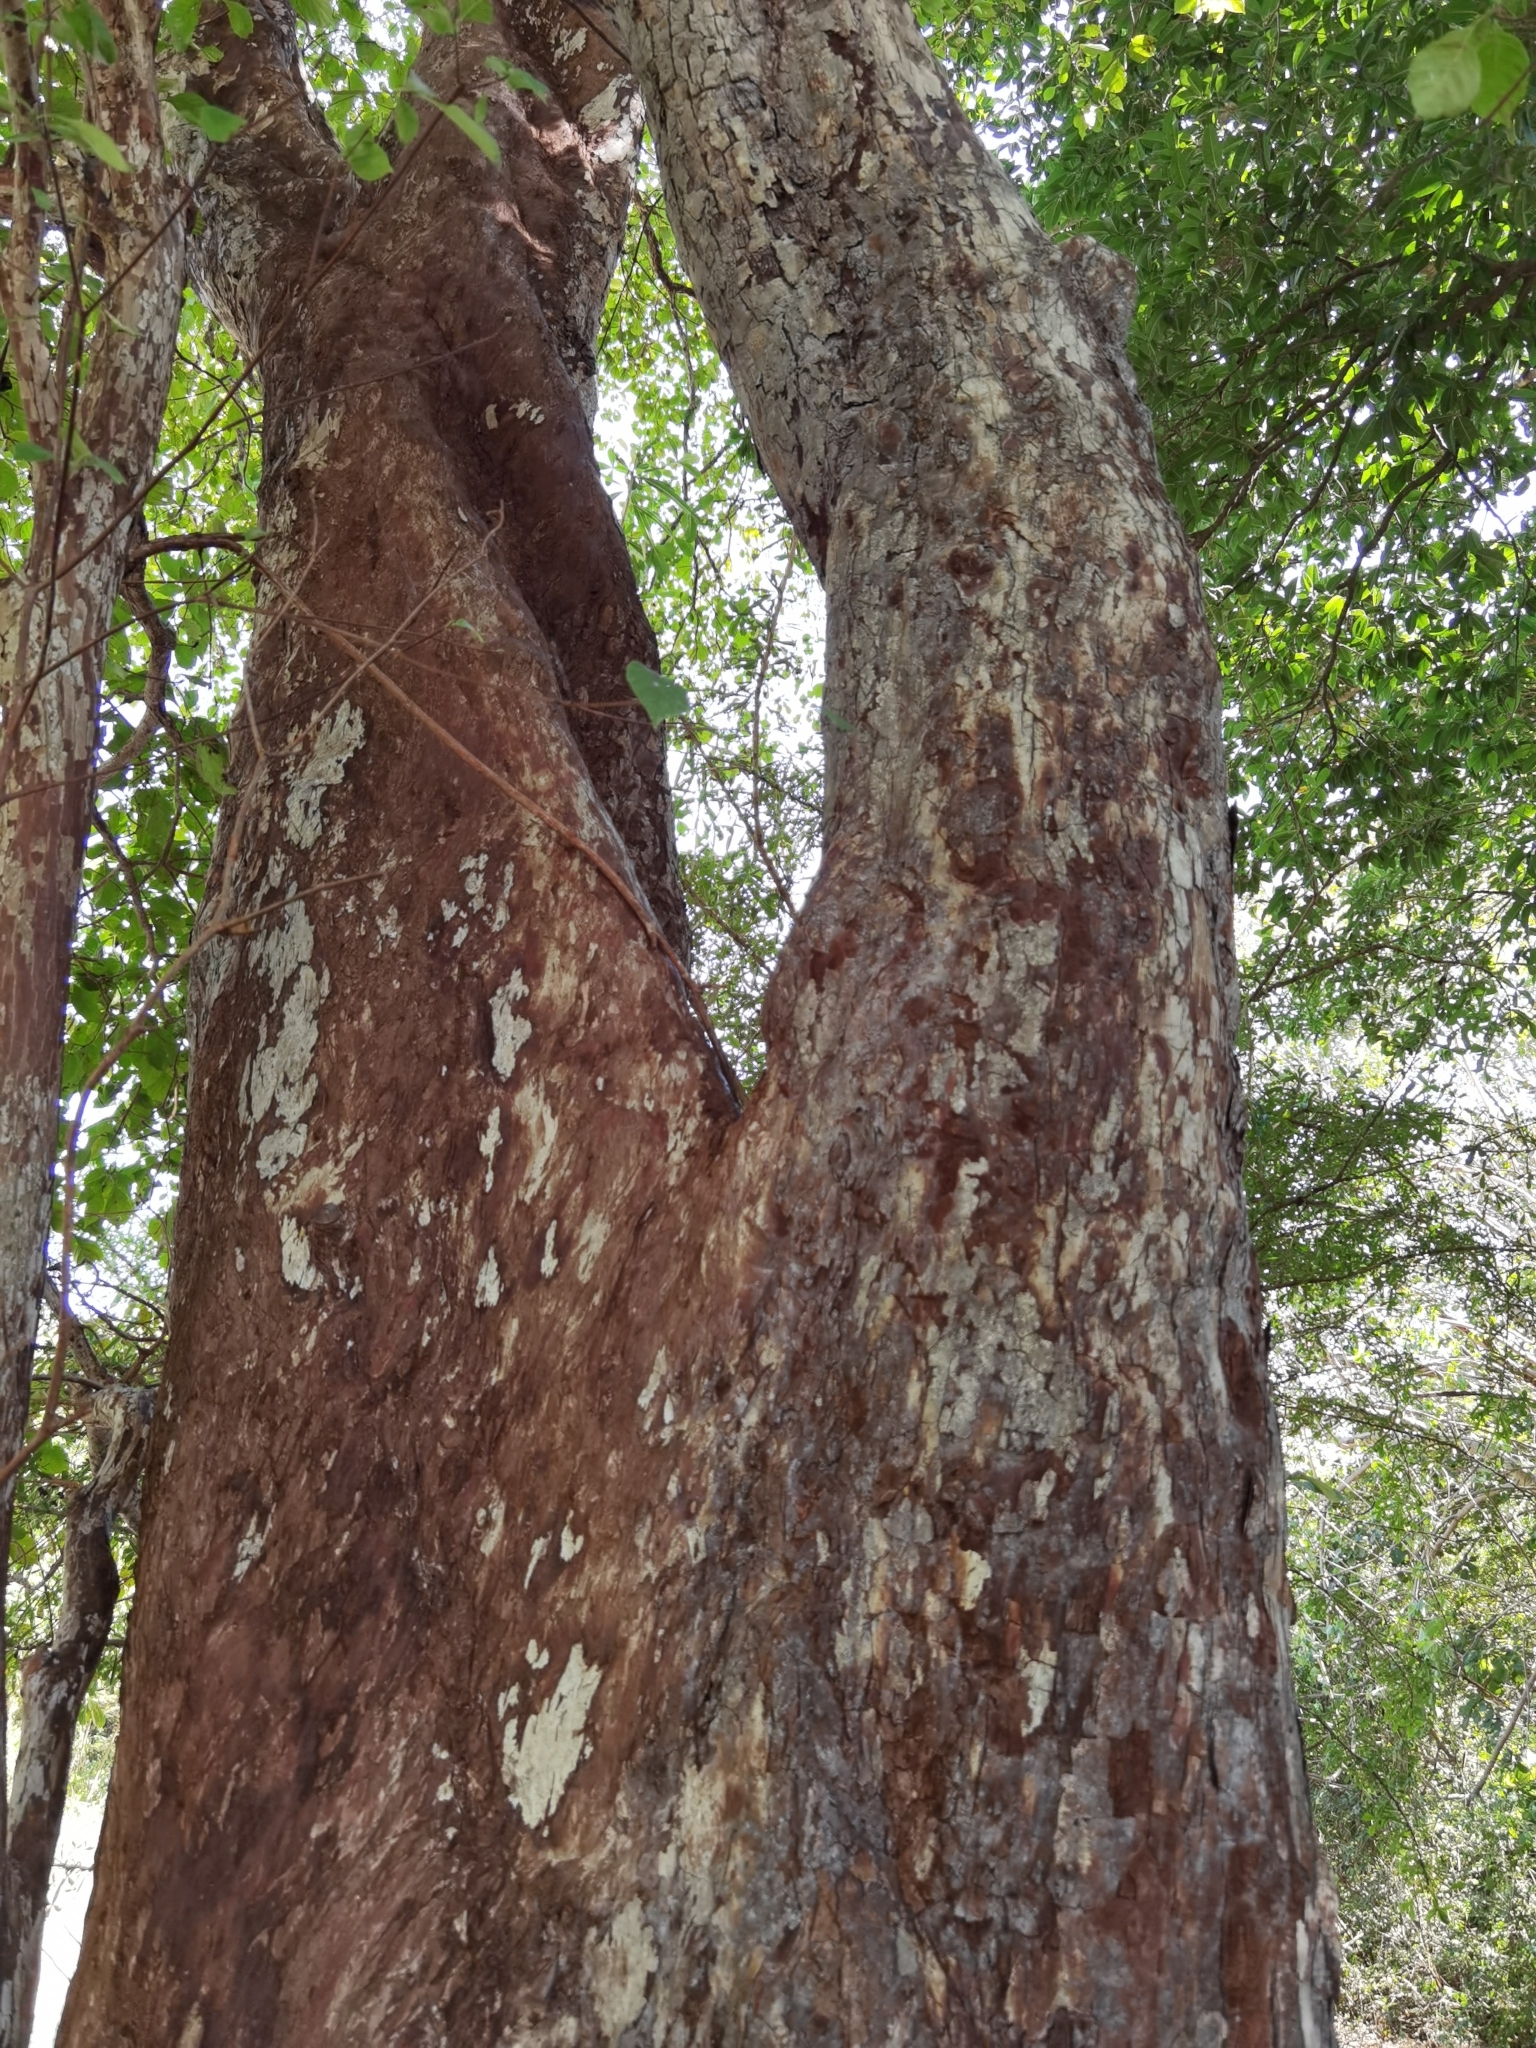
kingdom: Plantae
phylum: Tracheophyta
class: Magnoliopsida
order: Gentianales
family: Rubiaceae
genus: Calycophyllum
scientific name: Calycophyllum candidissimum
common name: Dagame
